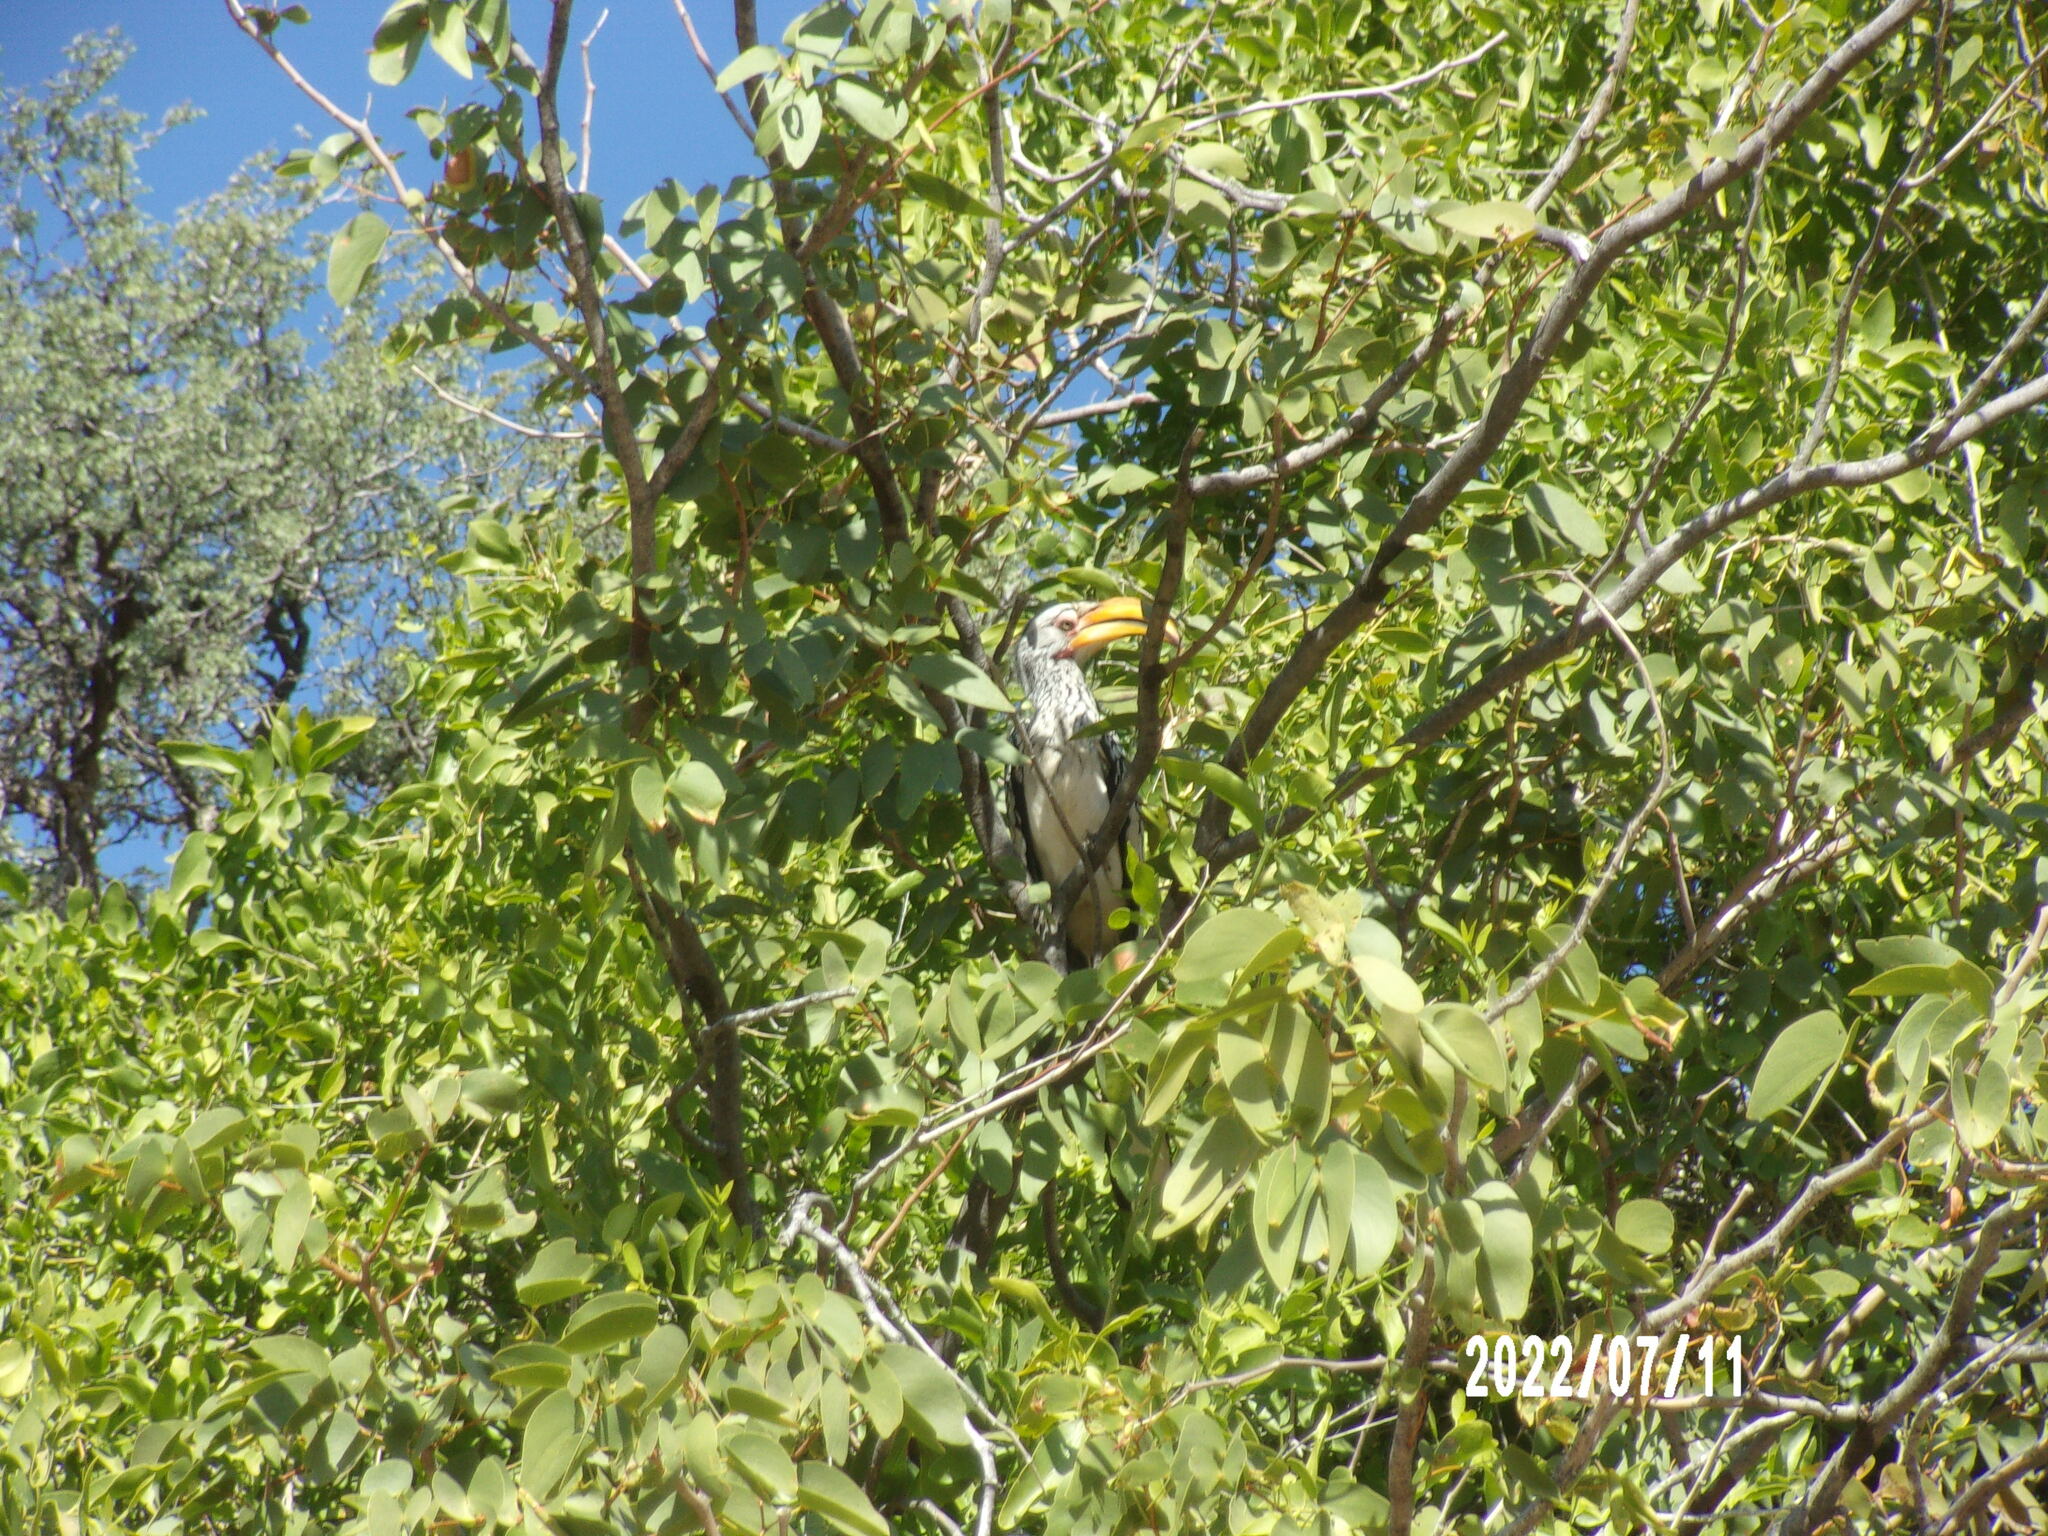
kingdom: Animalia
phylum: Chordata
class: Aves
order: Bucerotiformes
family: Bucerotidae
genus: Tockus
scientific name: Tockus leucomelas
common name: Southern yellow-billed hornbill
